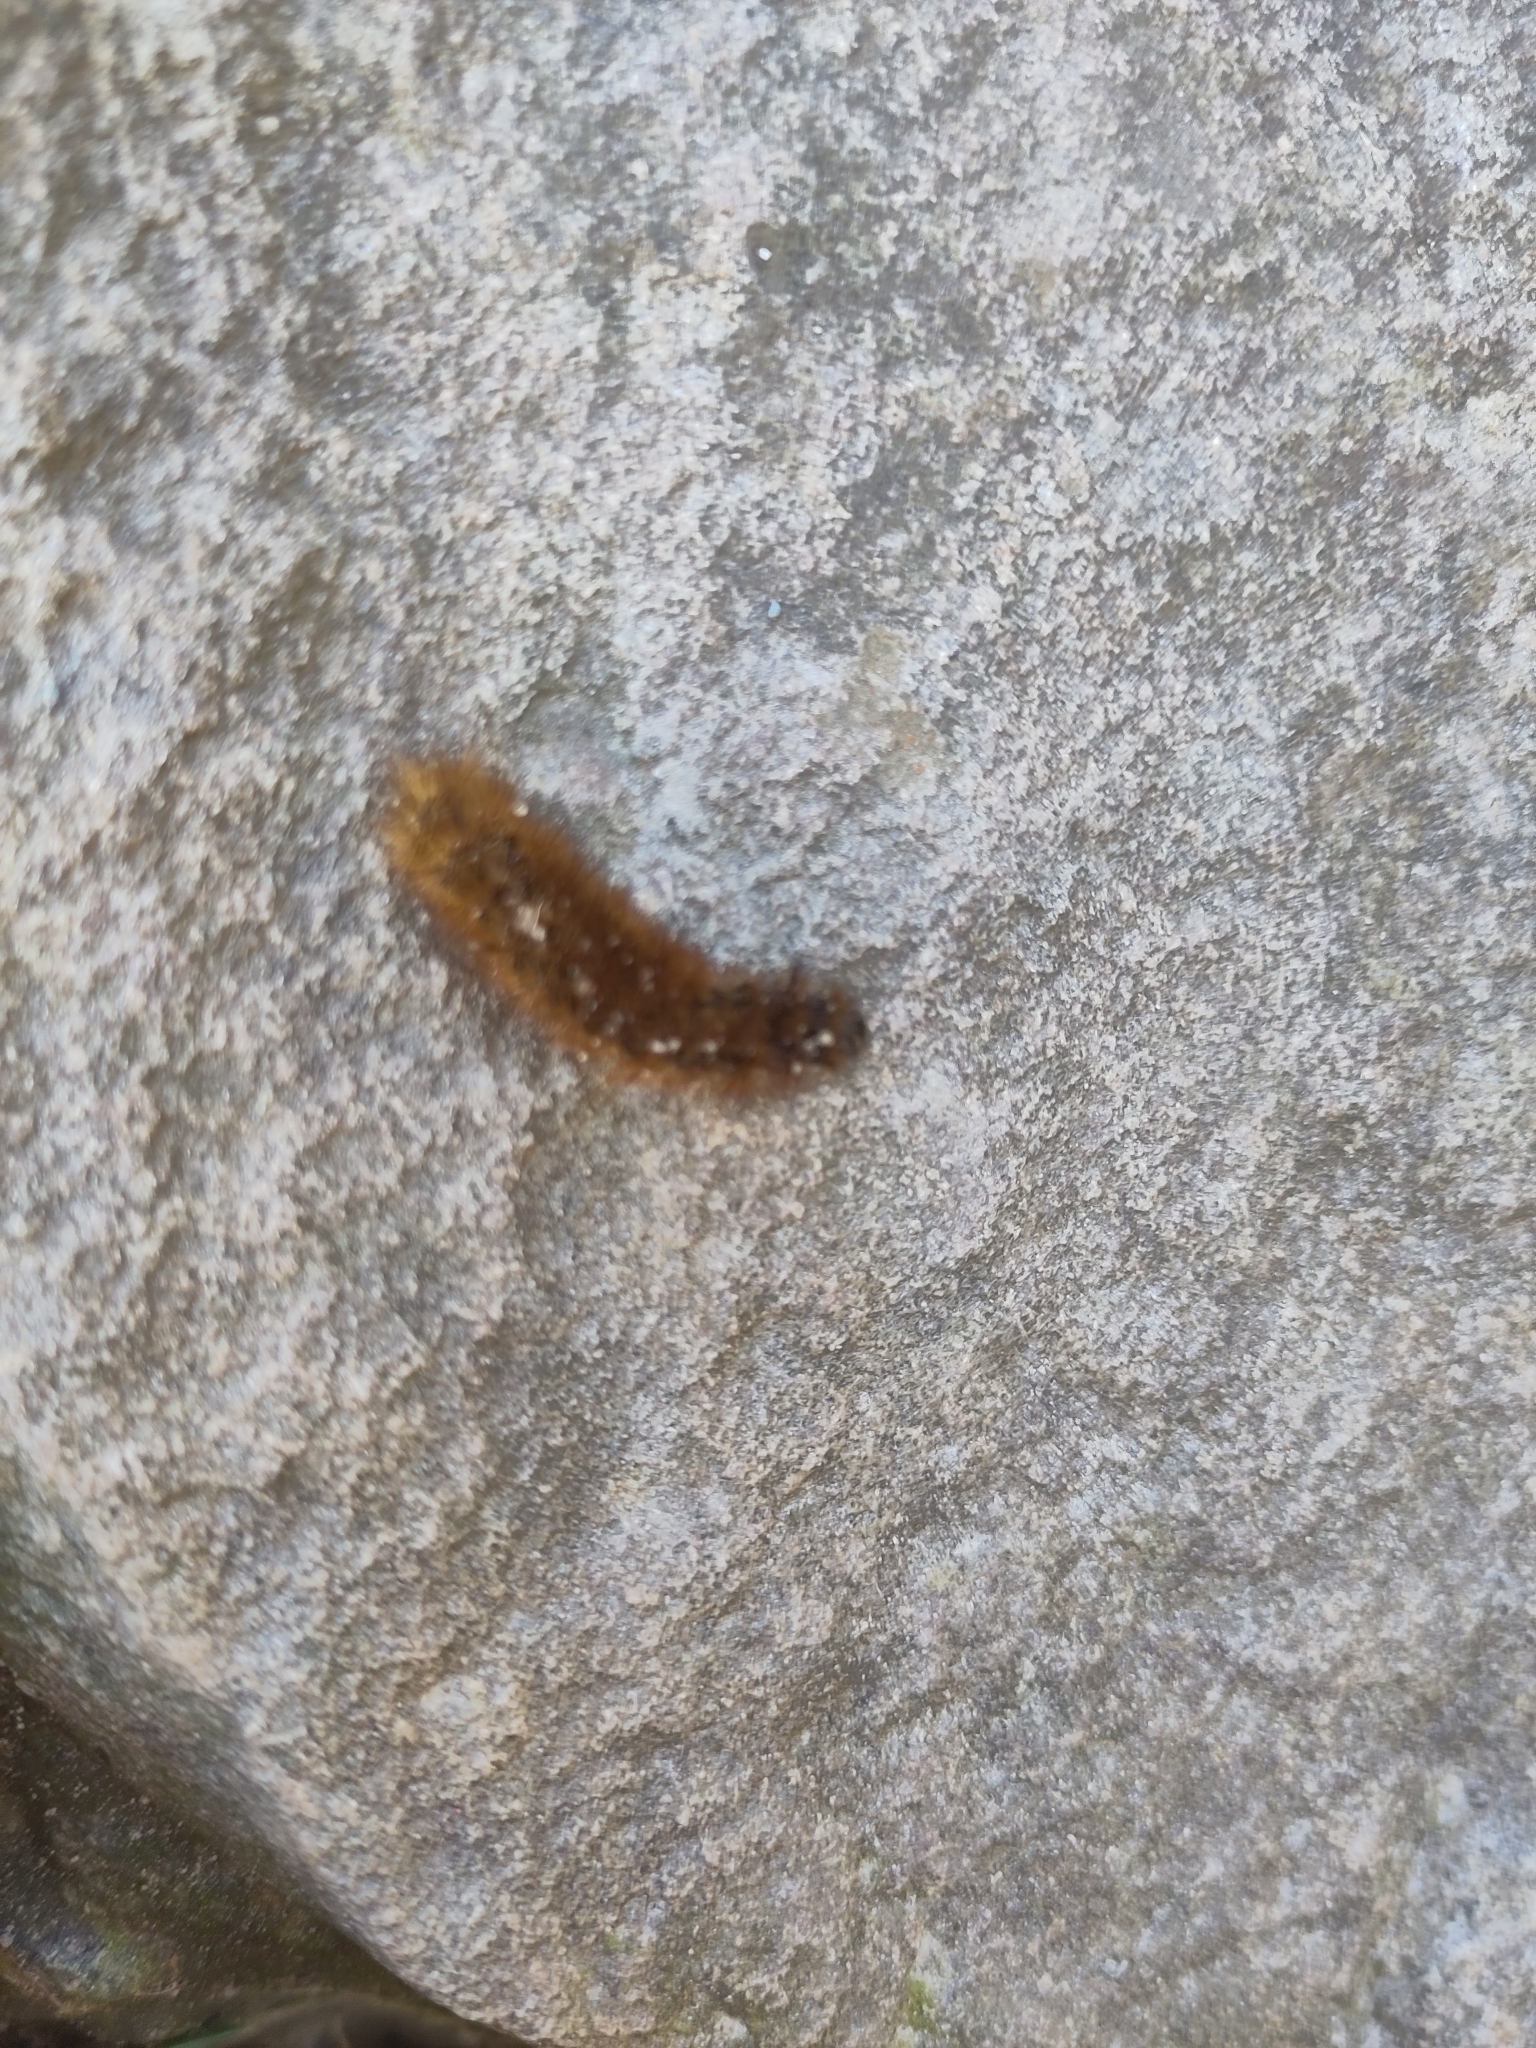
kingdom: Animalia
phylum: Arthropoda
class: Insecta
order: Lepidoptera
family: Erebidae
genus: Phragmatobia
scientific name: Phragmatobia fuliginosa
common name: Ruby tiger
